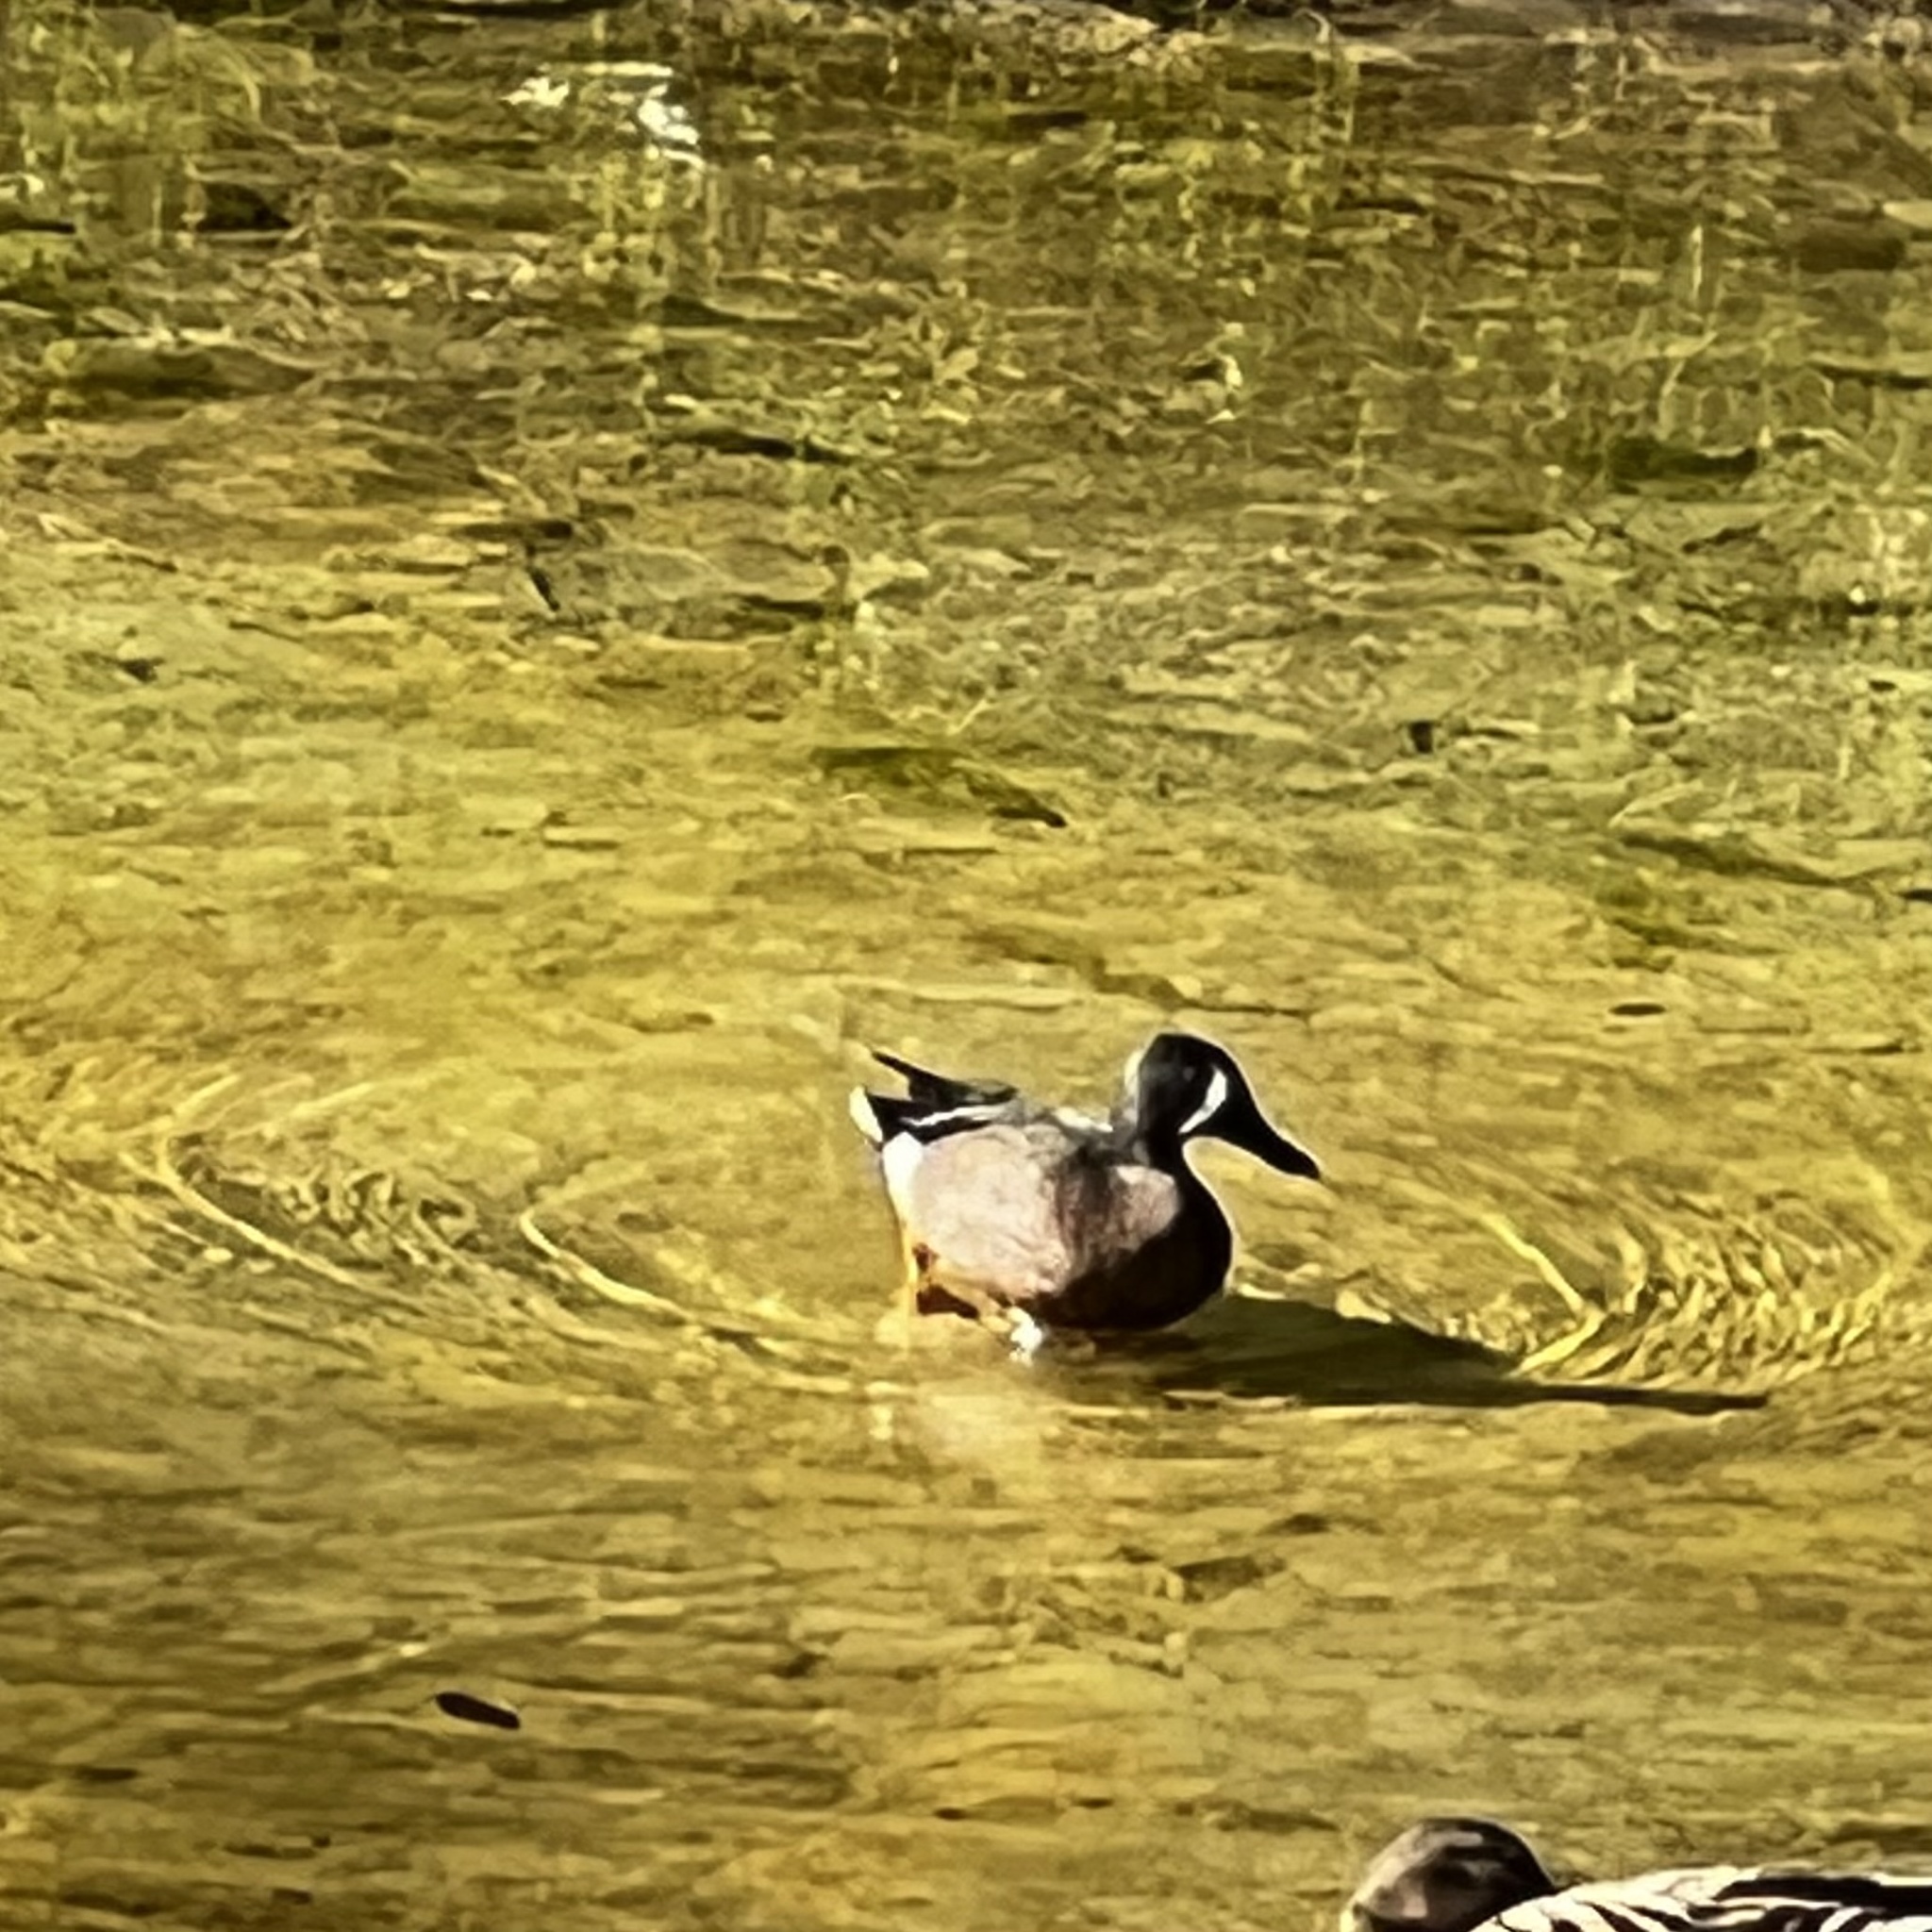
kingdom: Animalia
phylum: Chordata
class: Aves
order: Anseriformes
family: Anatidae
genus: Spatula
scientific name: Spatula discors
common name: Blue-winged teal
